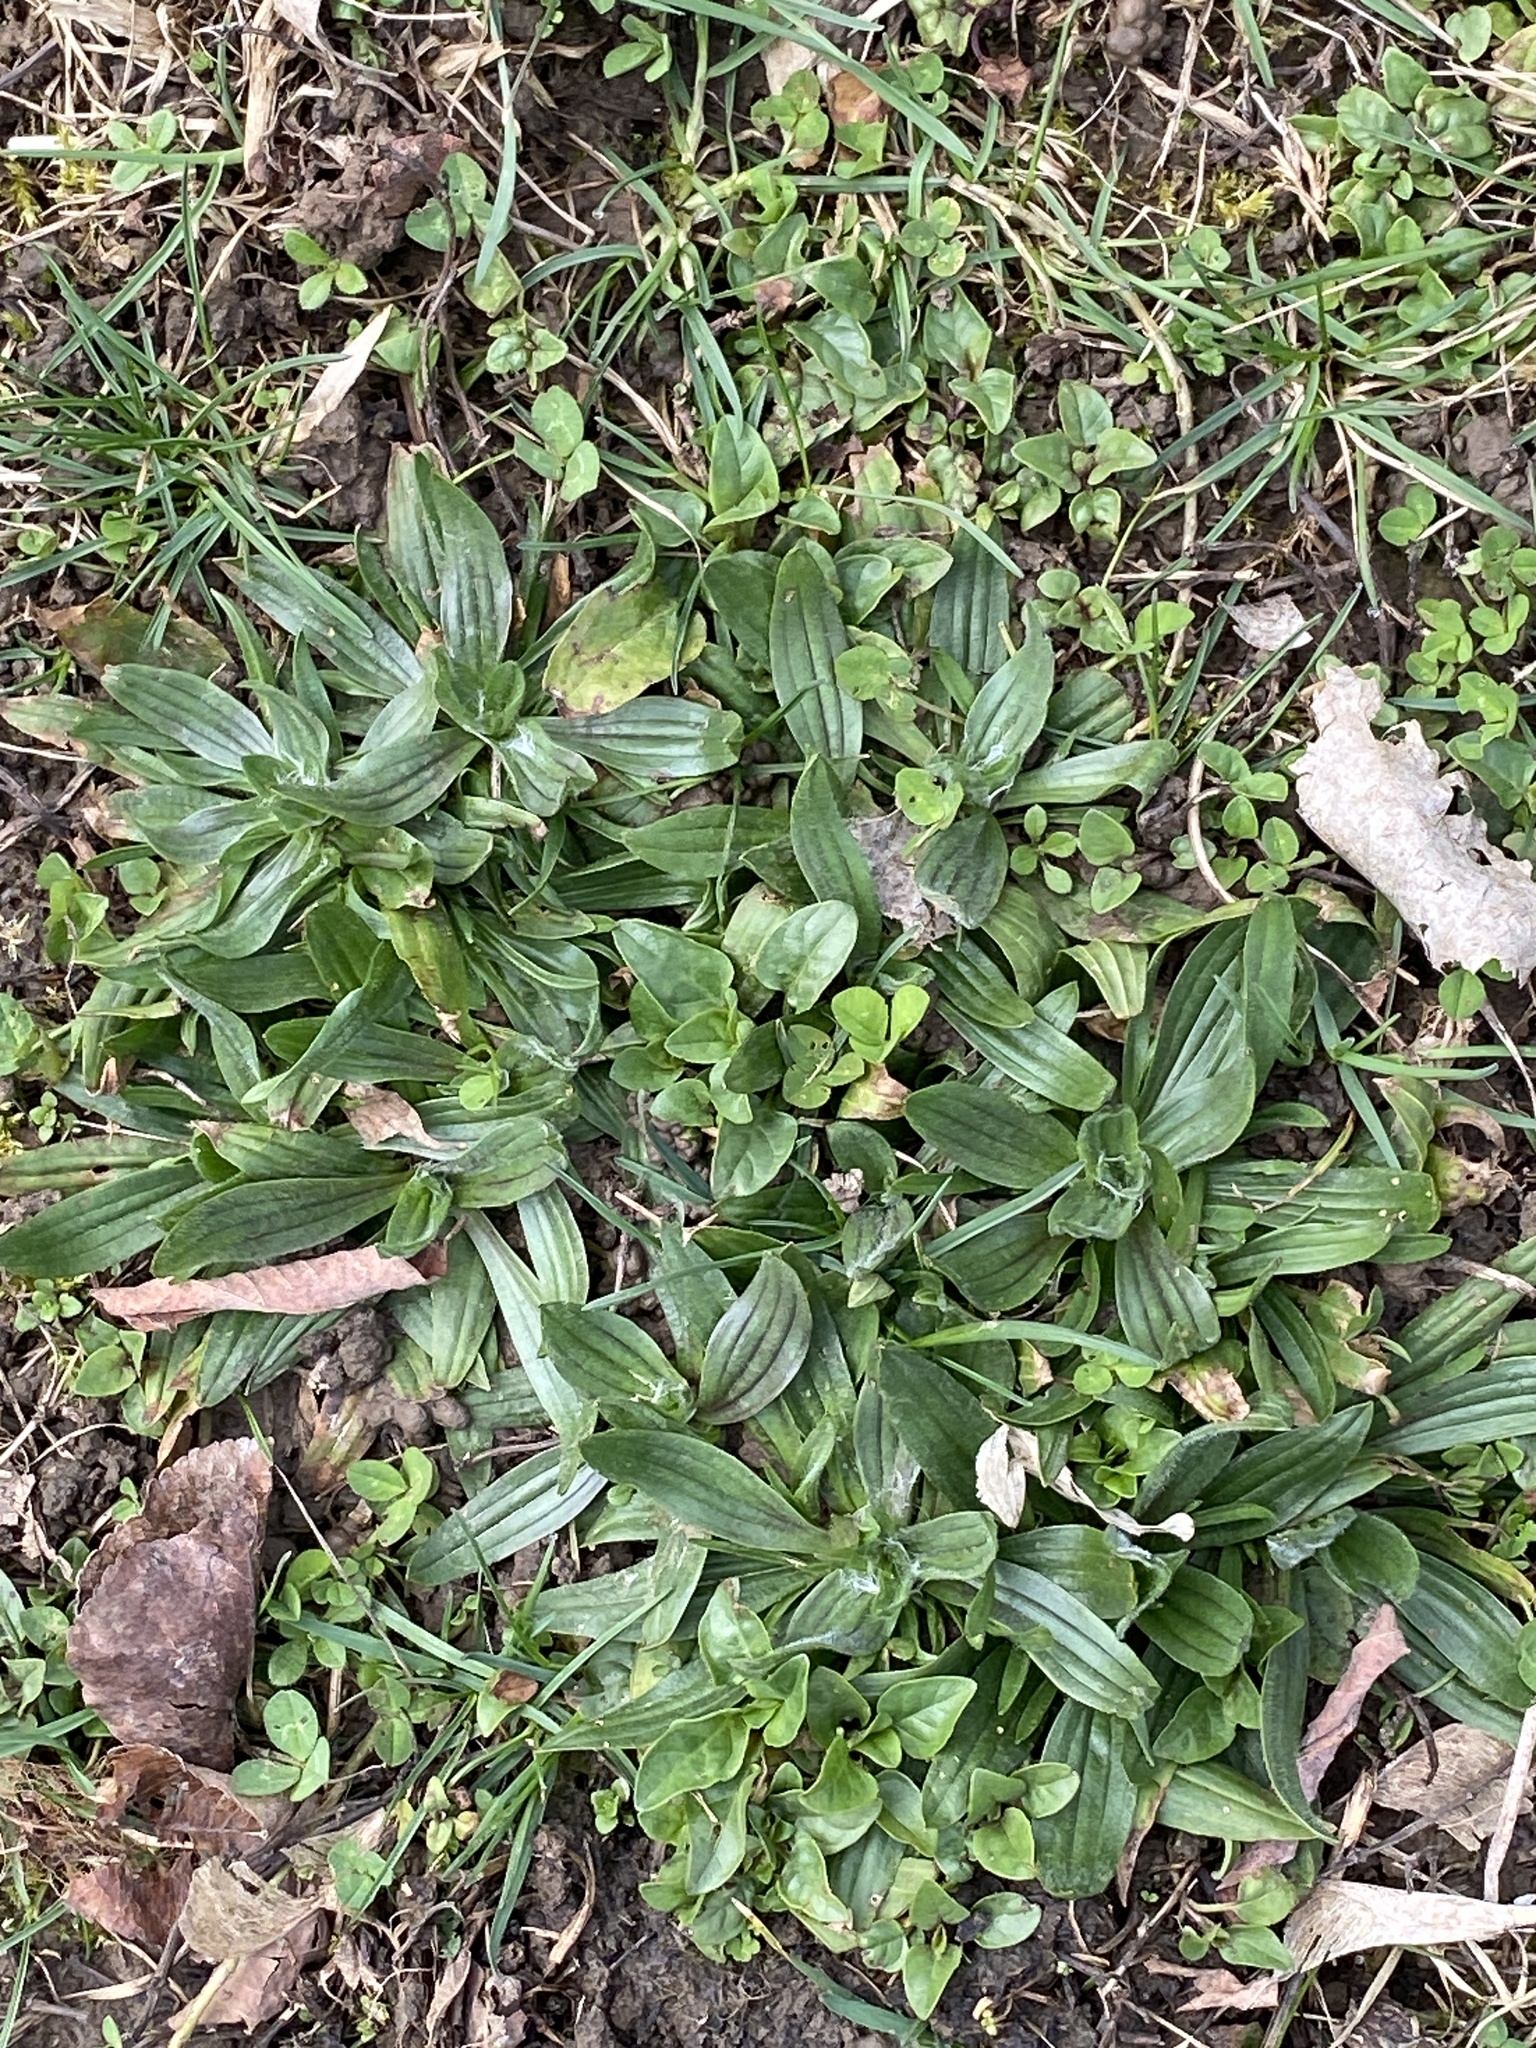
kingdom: Plantae
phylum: Tracheophyta
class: Magnoliopsida
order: Lamiales
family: Plantaginaceae
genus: Plantago
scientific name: Plantago lanceolata
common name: Ribwort plantain
